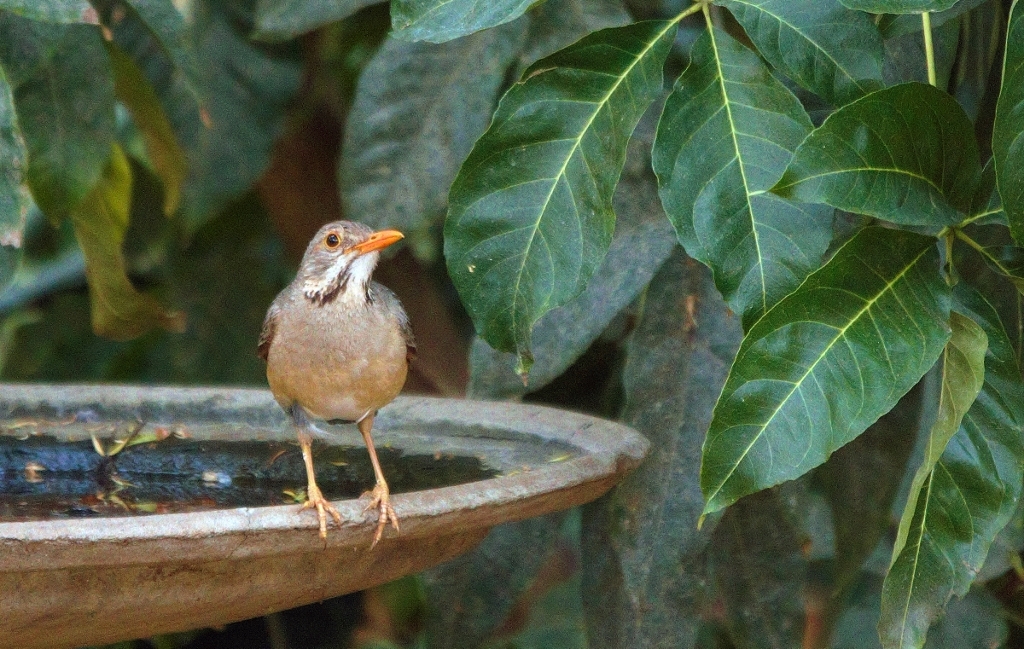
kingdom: Animalia
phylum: Chordata
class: Aves
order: Passeriformes
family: Turdidae
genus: Turdus
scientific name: Turdus libonyana
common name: Kurrichane thrush
